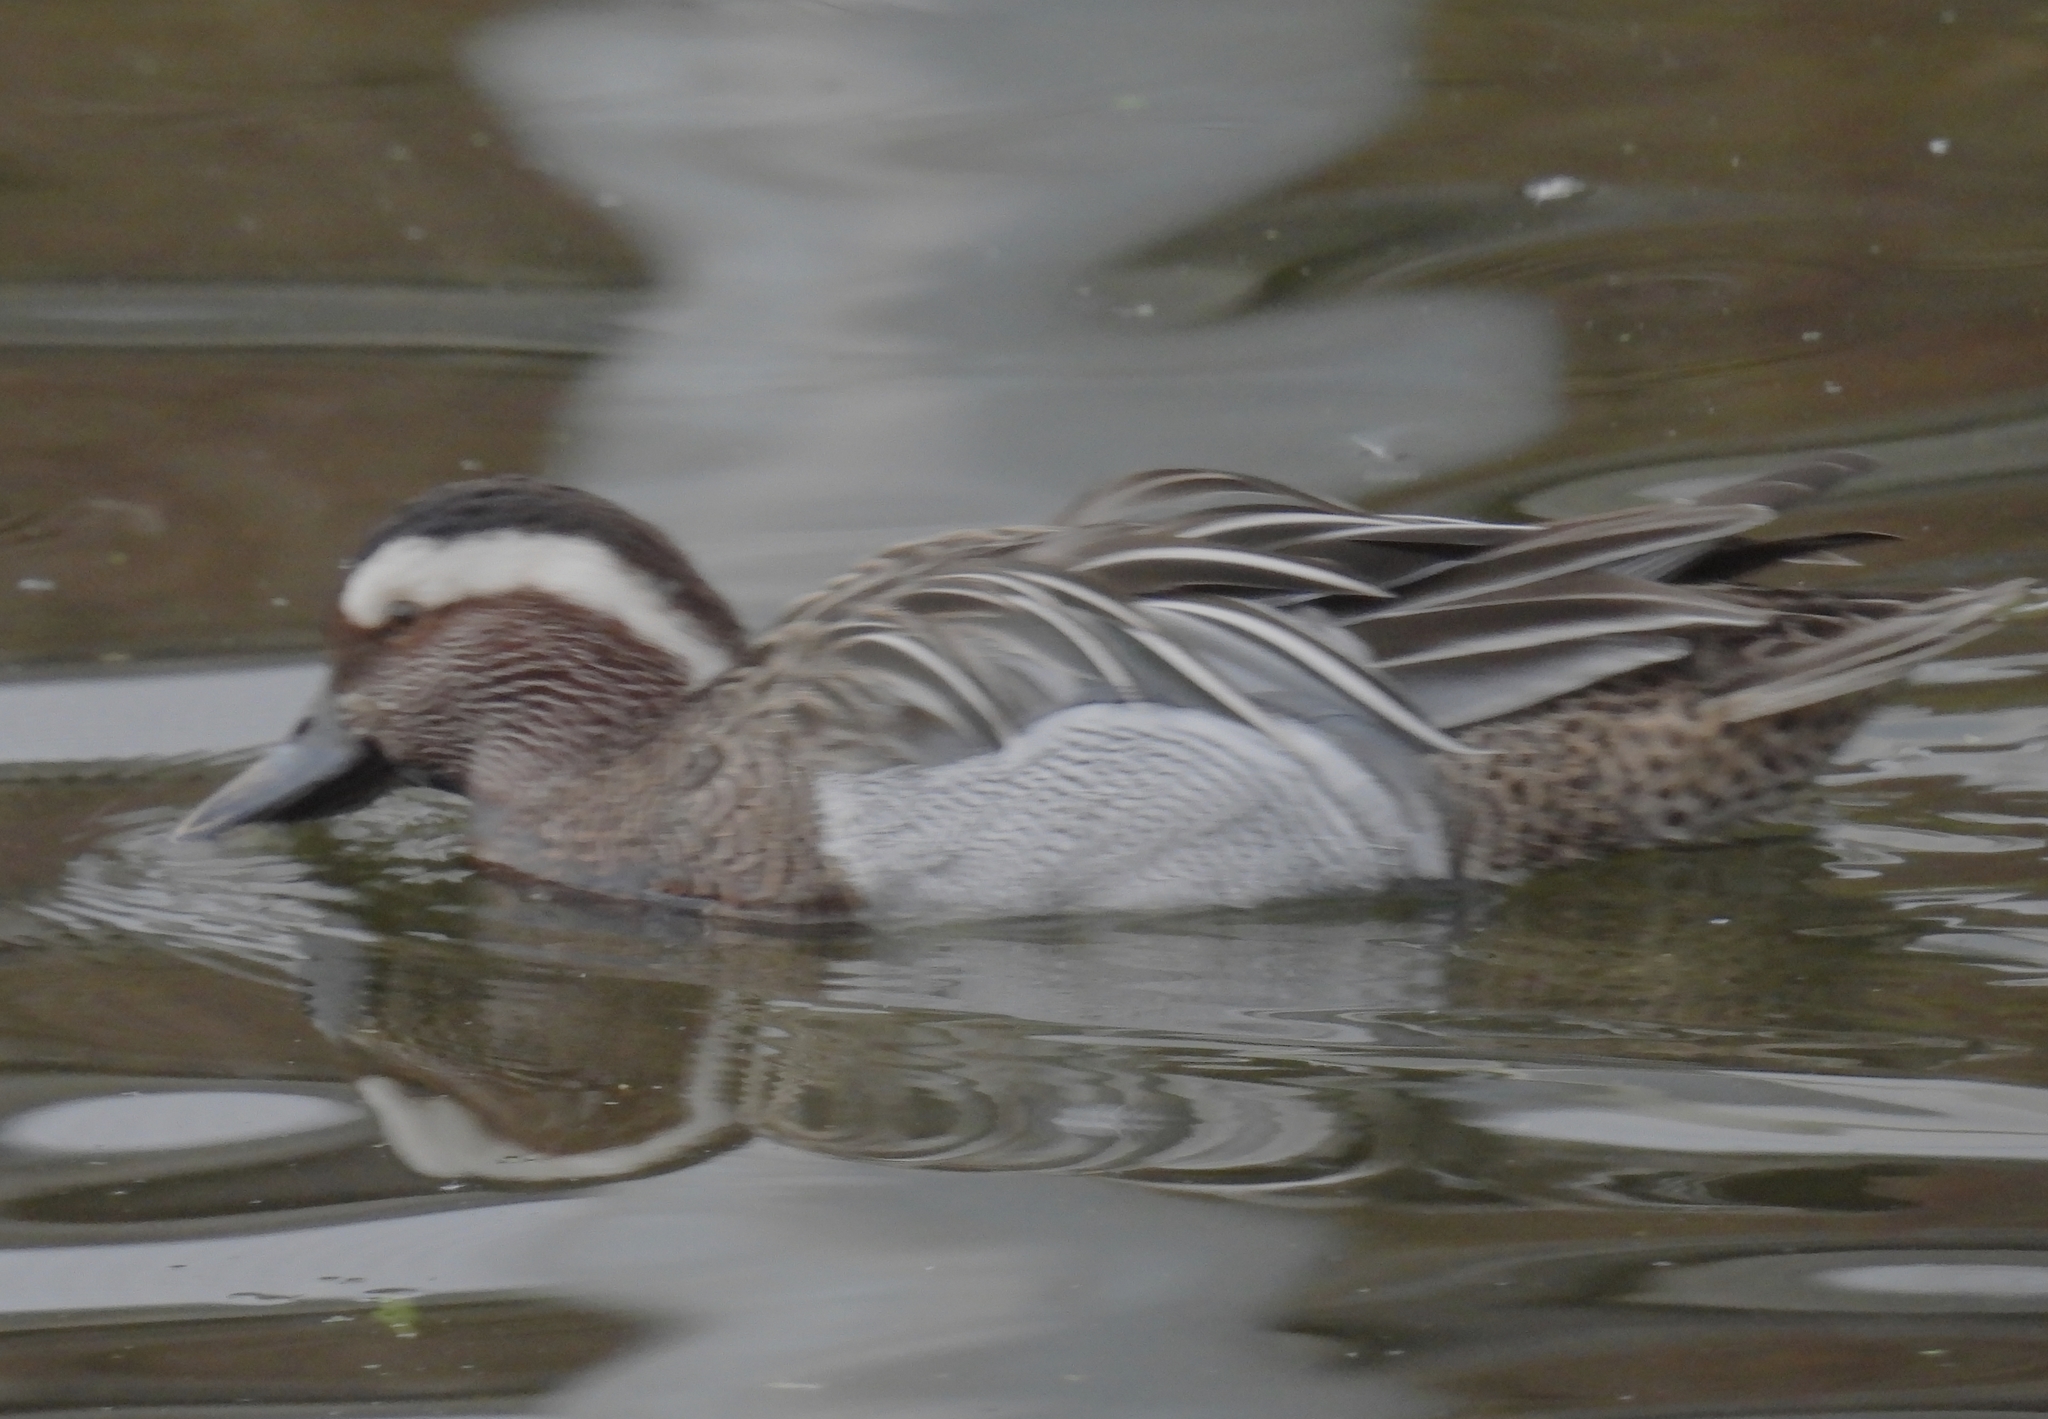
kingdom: Animalia
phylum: Chordata
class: Aves
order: Anseriformes
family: Anatidae
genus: Spatula
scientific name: Spatula querquedula
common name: Garganey
